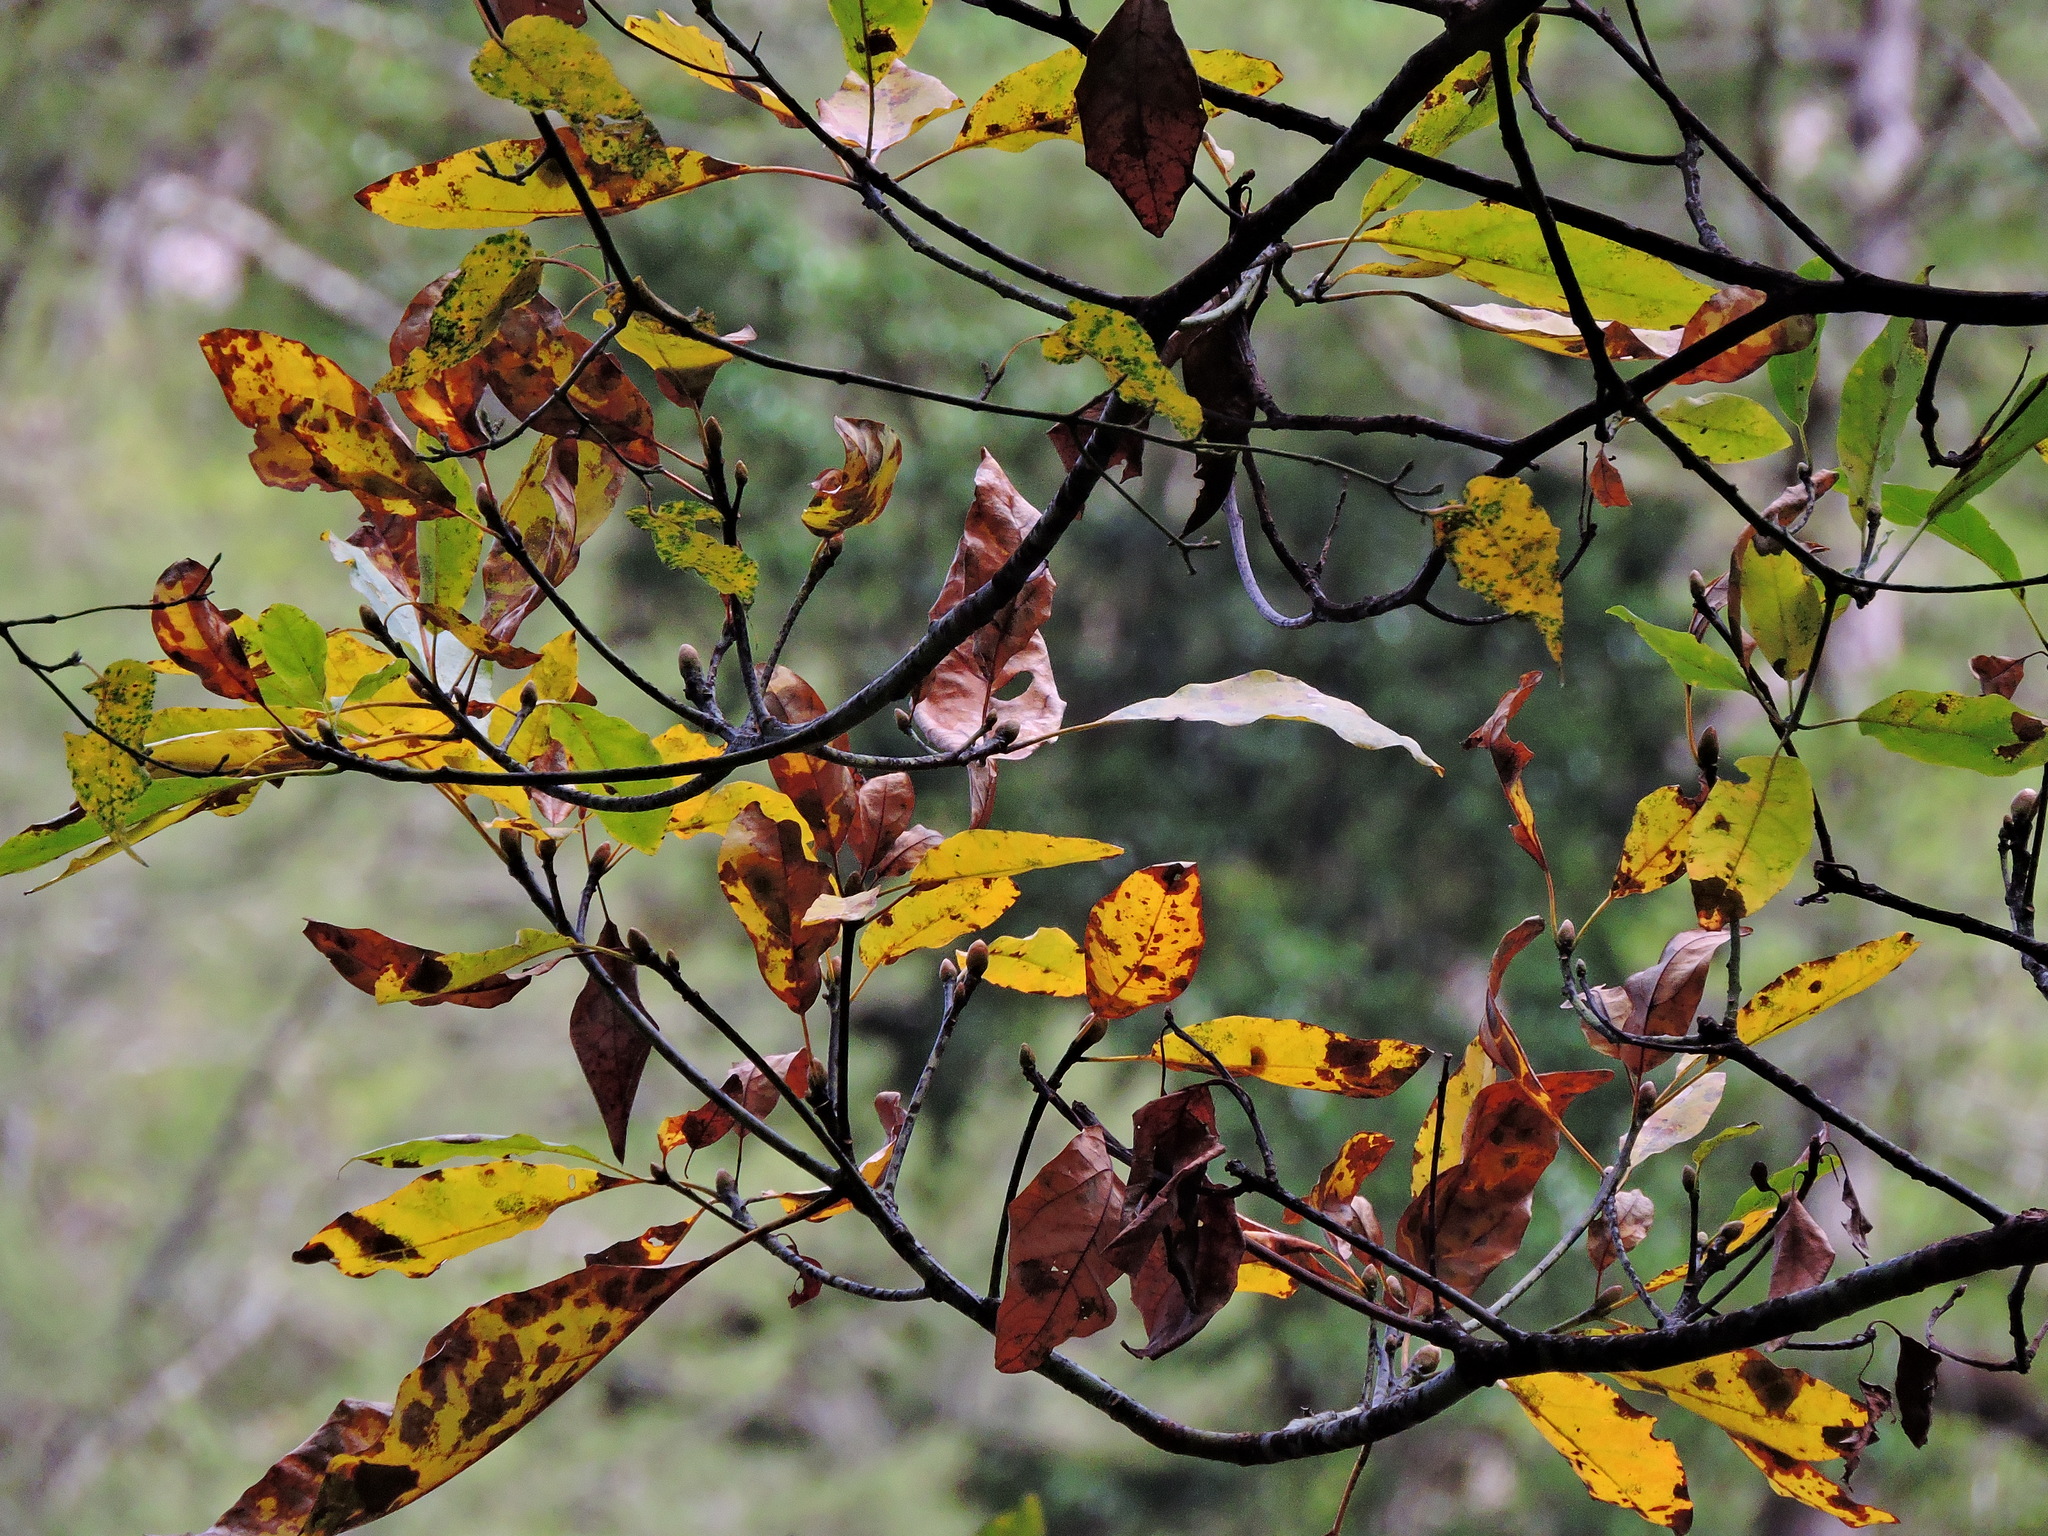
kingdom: Plantae
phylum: Tracheophyta
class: Magnoliopsida
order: Laurales
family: Lauraceae
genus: Sassafras
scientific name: Sassafras randaiense
